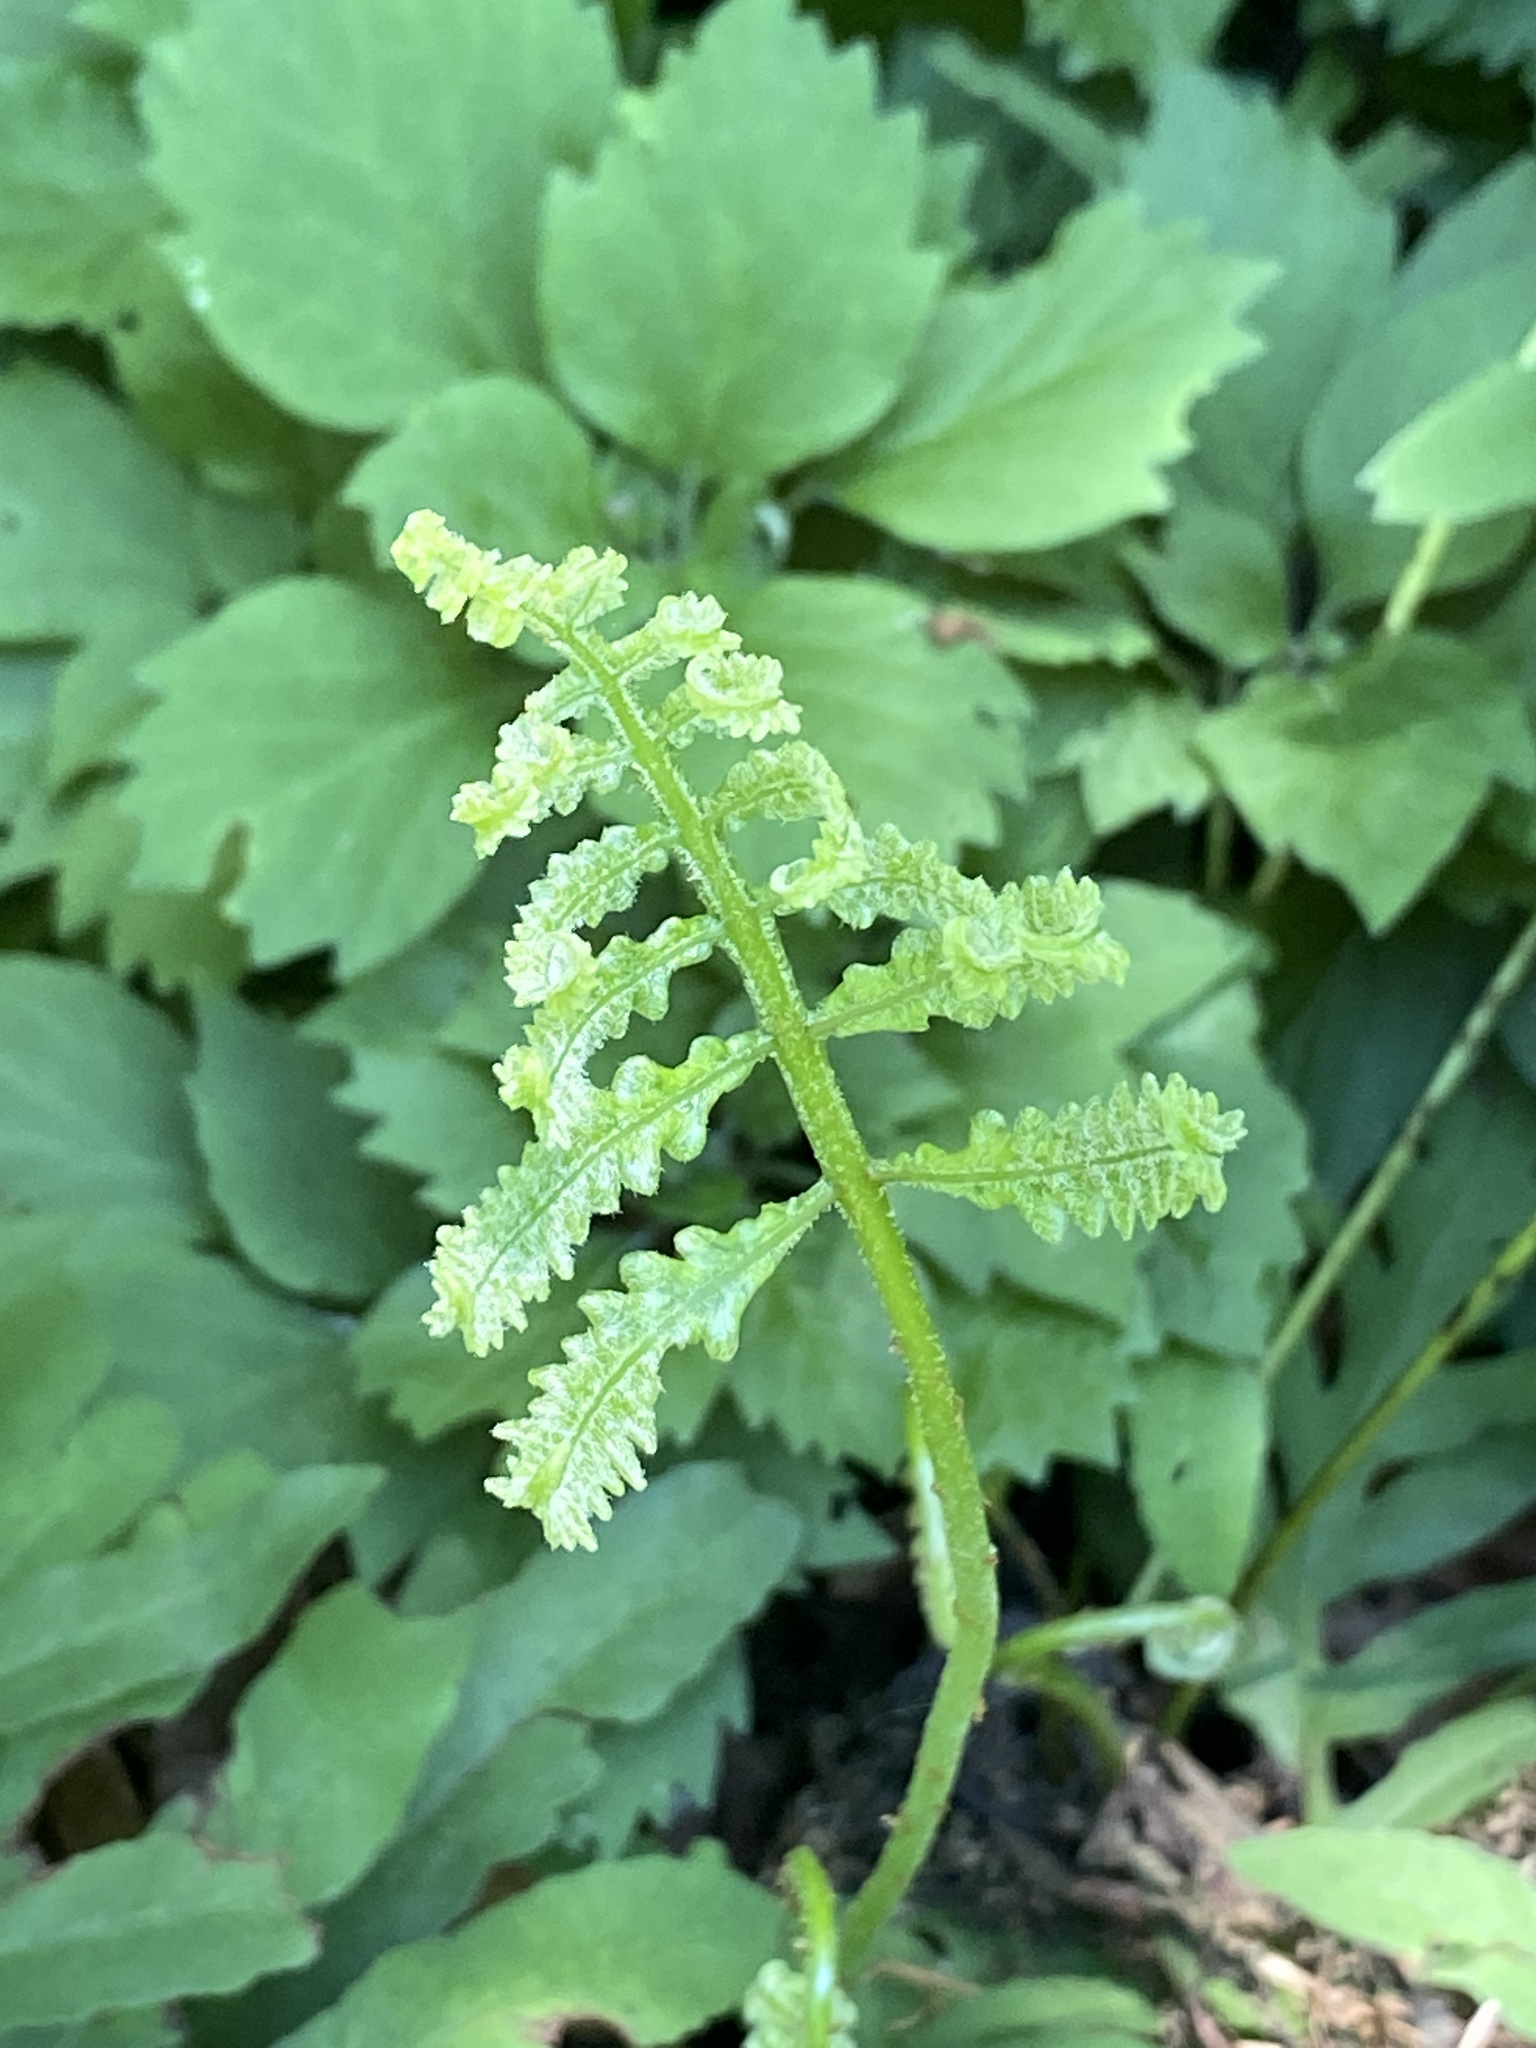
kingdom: Plantae
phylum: Tracheophyta
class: Polypodiopsida
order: Polypodiales
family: Onocleaceae
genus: Onoclea
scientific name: Onoclea sensibilis
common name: Sensitive fern
